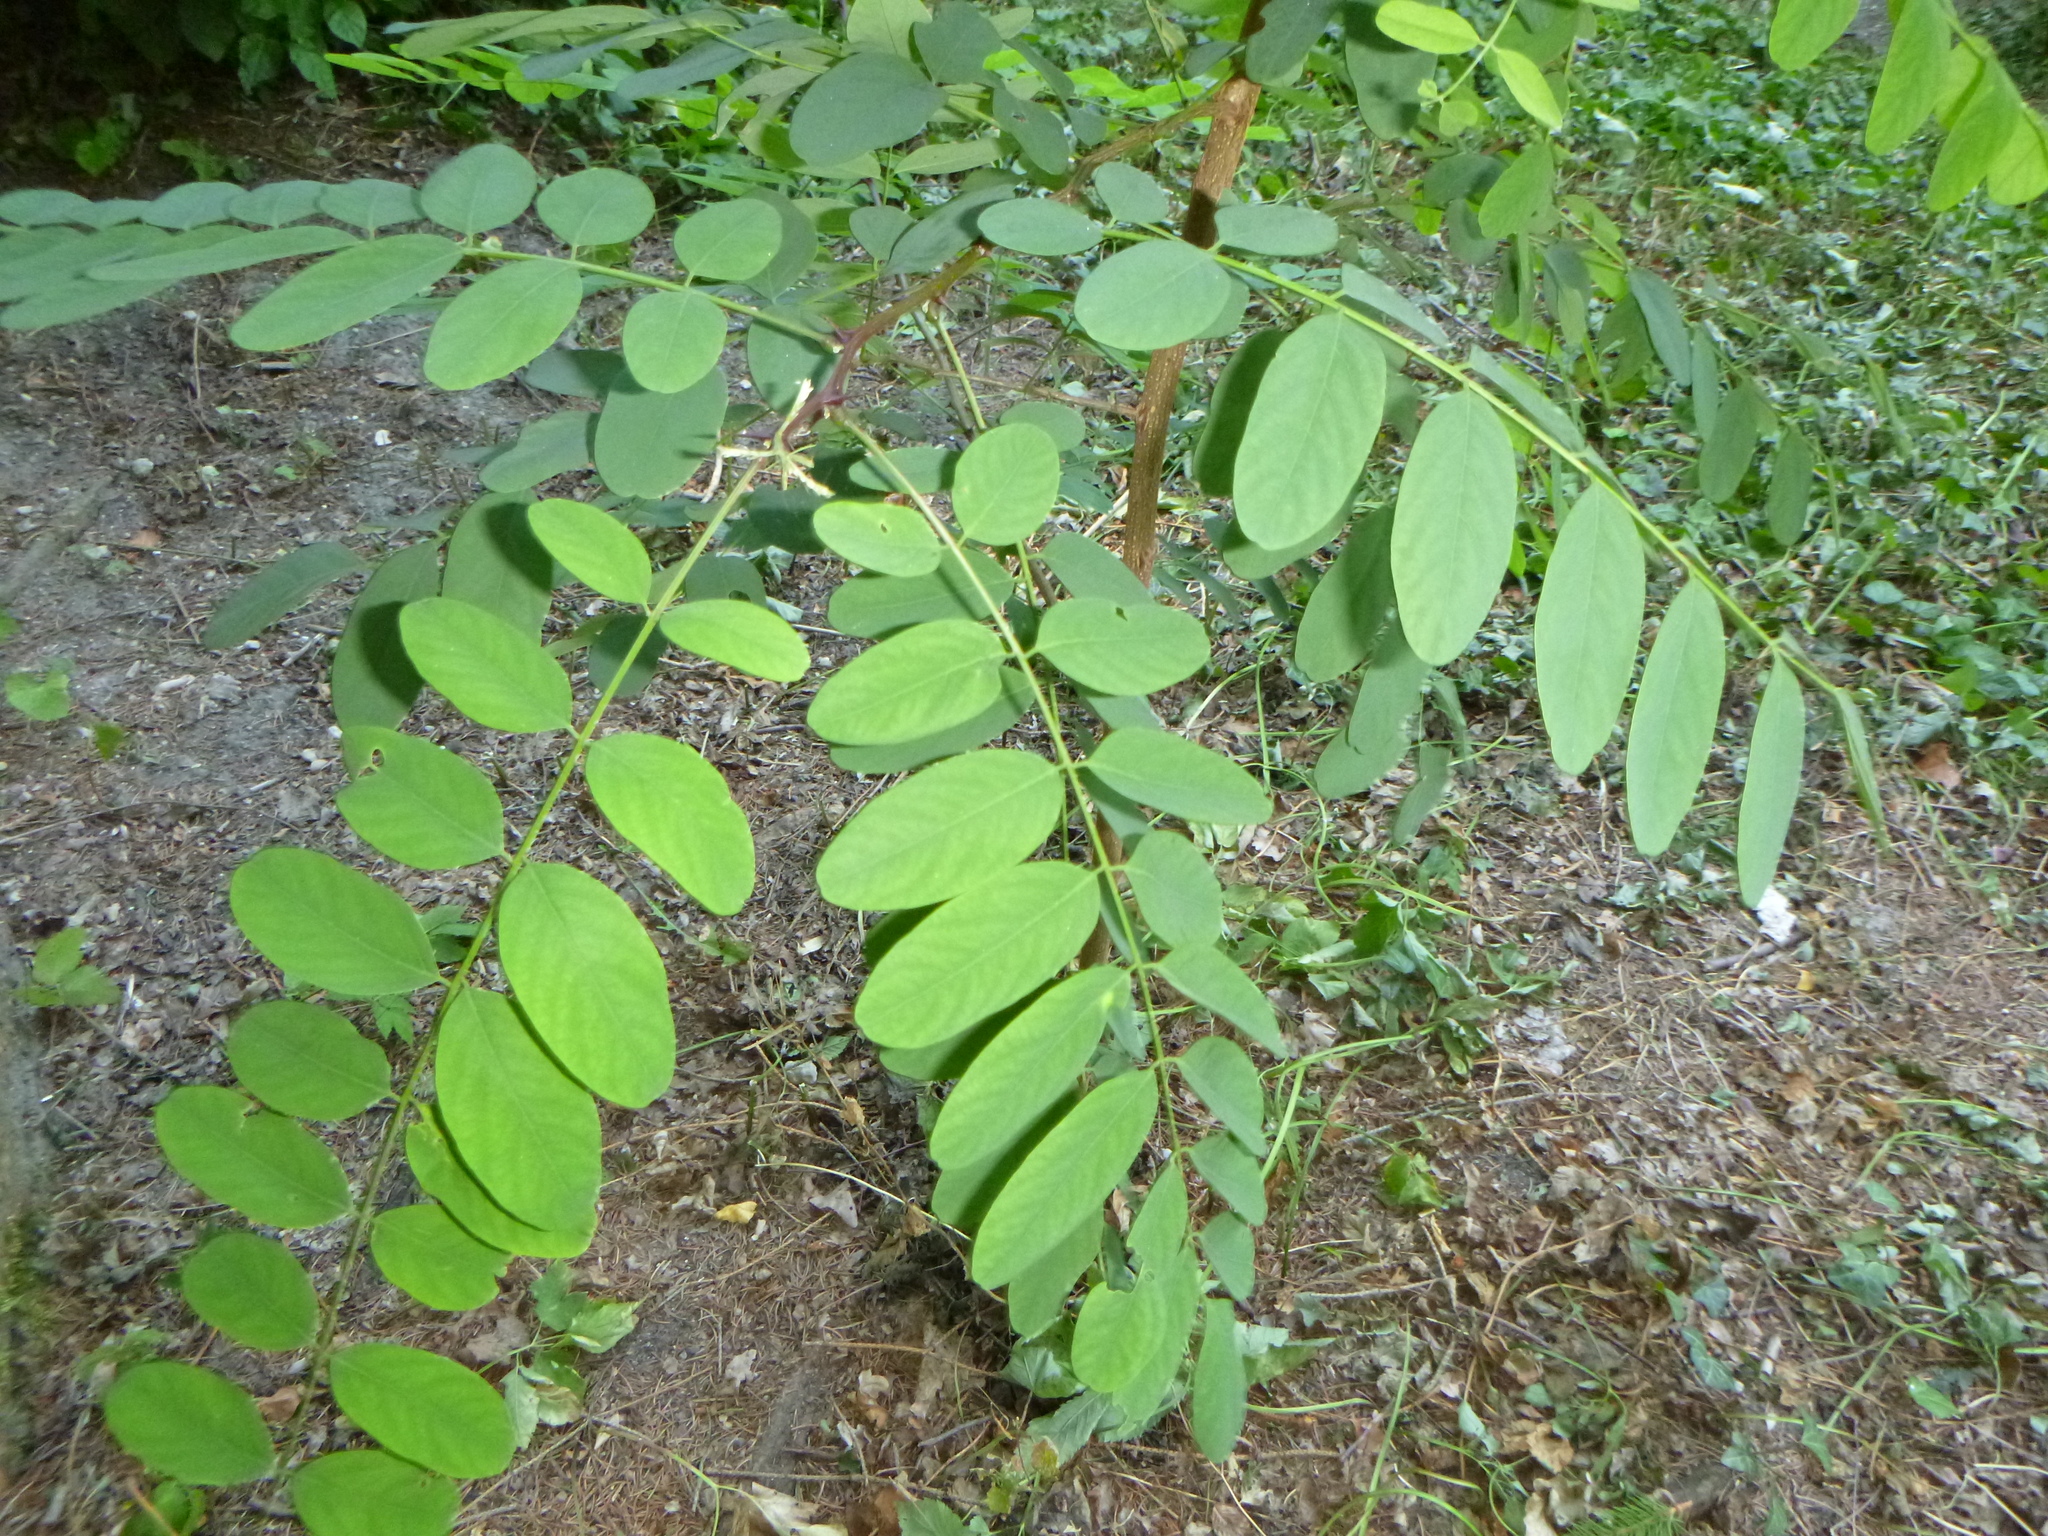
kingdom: Plantae
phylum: Tracheophyta
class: Magnoliopsida
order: Fabales
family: Fabaceae
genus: Robinia
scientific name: Robinia pseudoacacia
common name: Black locust
